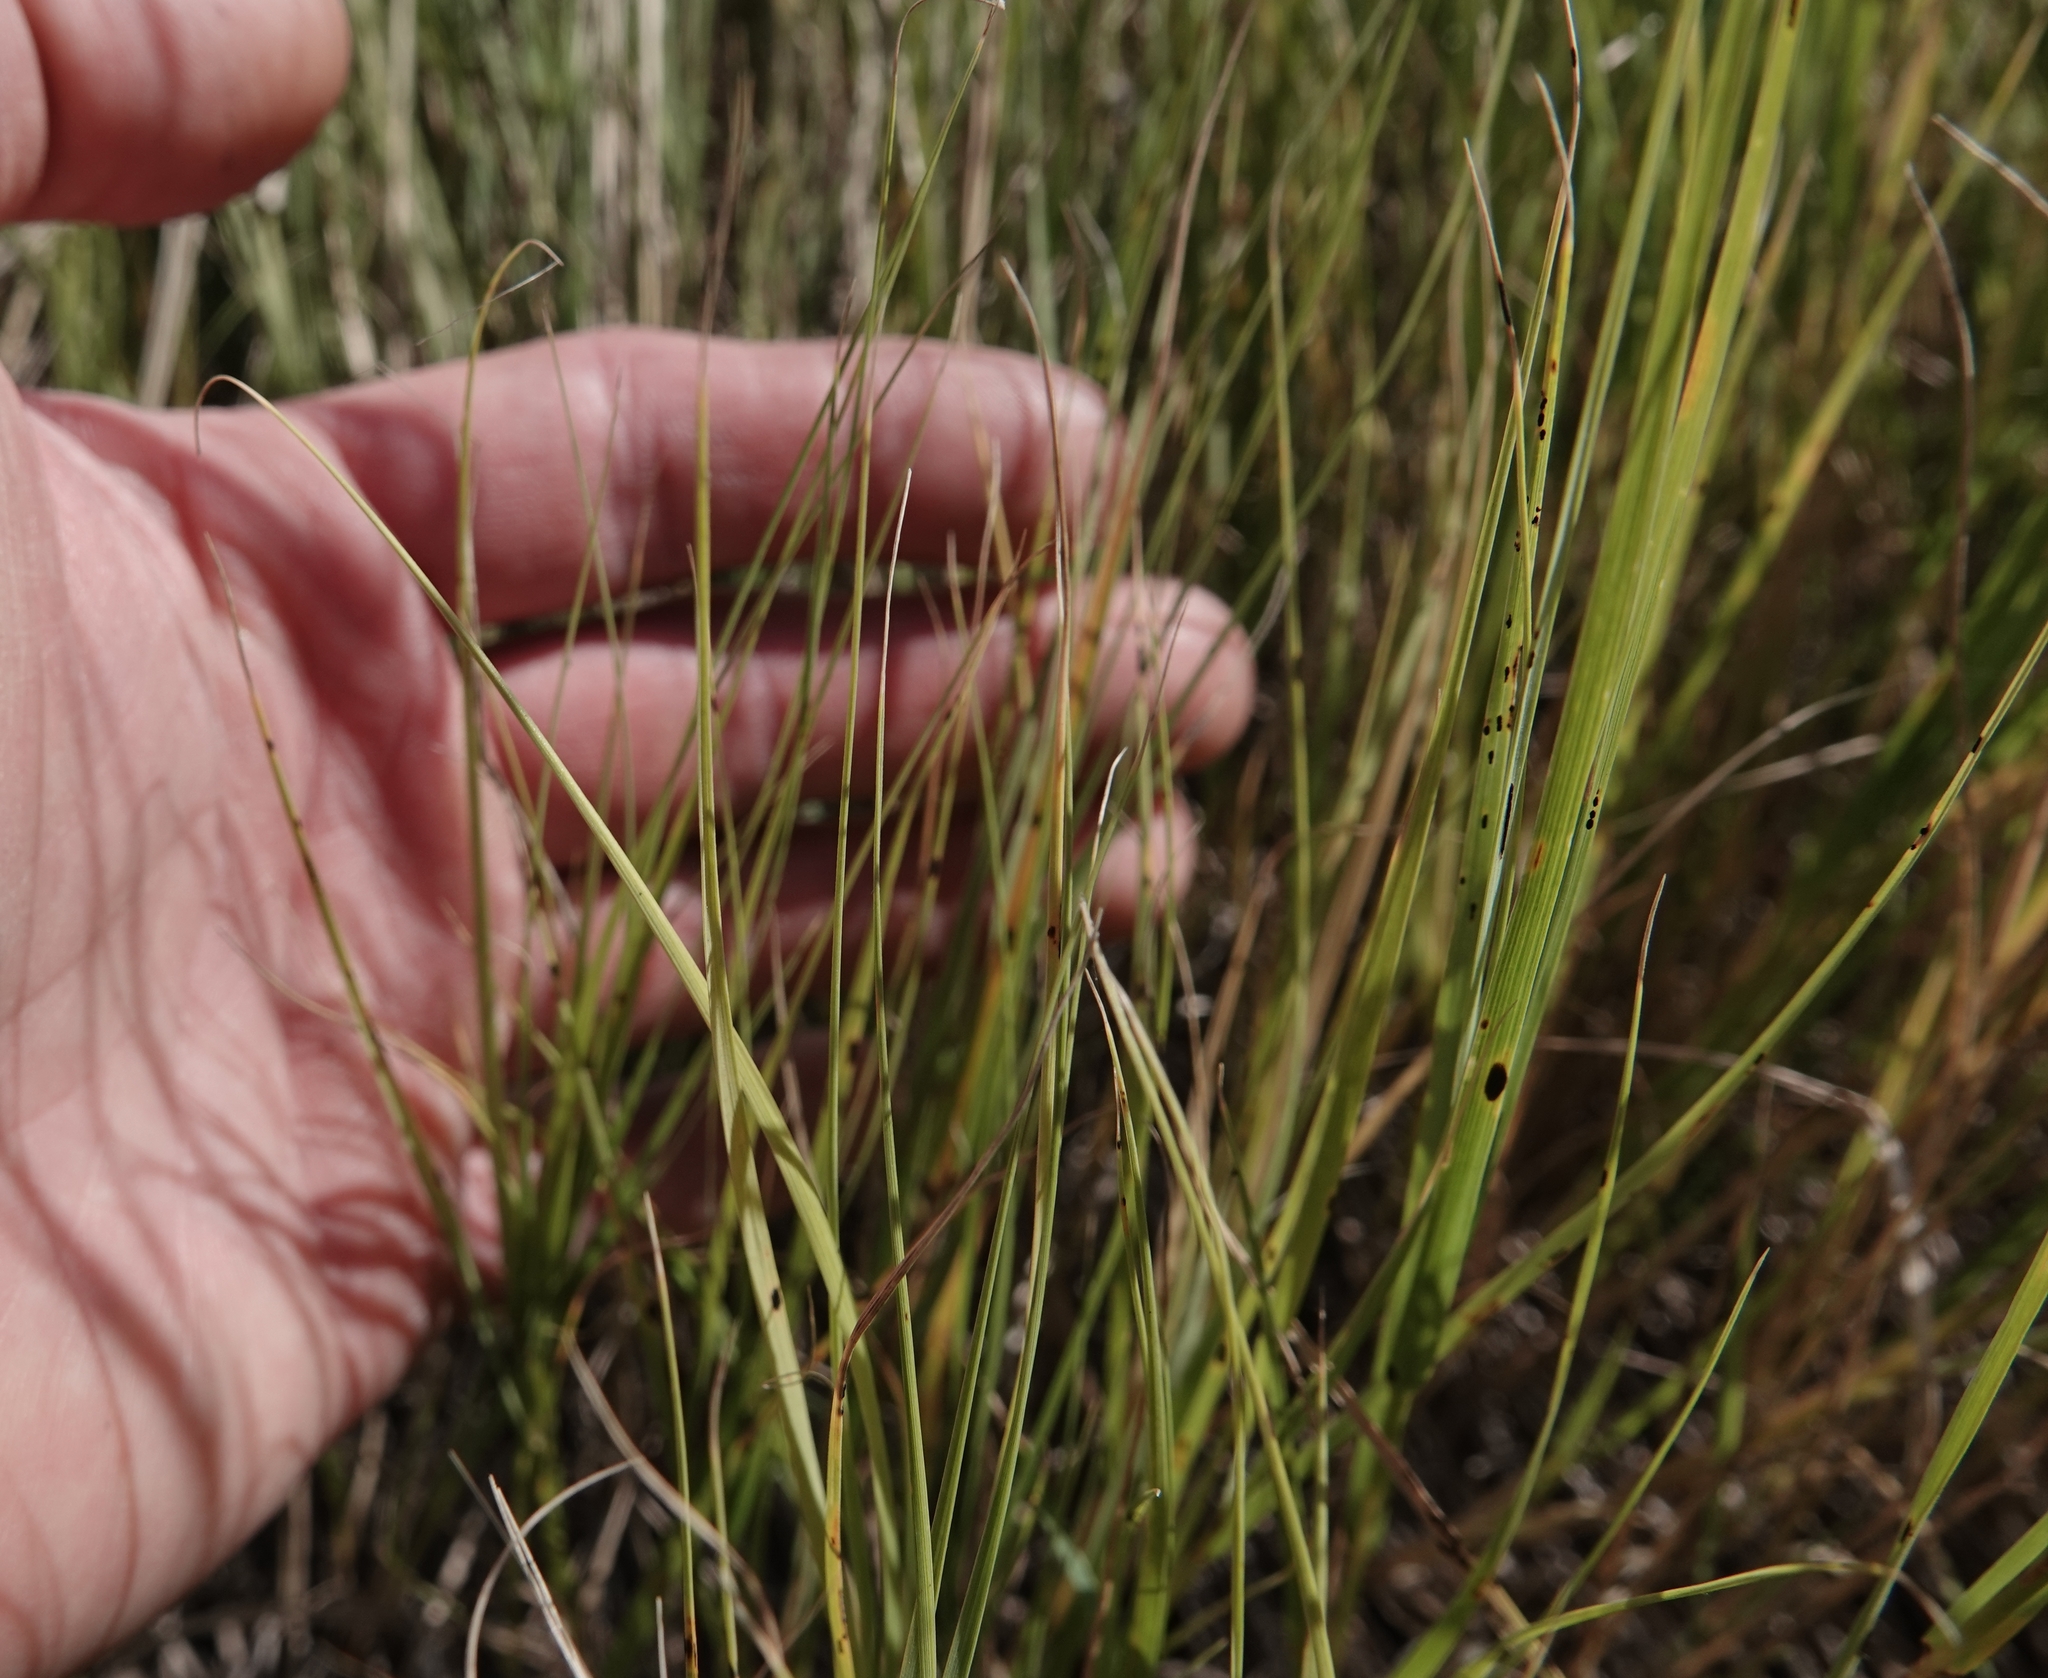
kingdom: Plantae
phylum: Tracheophyta
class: Liliopsida
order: Poales
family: Poaceae
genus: Distichlis
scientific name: Distichlis spicata
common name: Saltgrass
